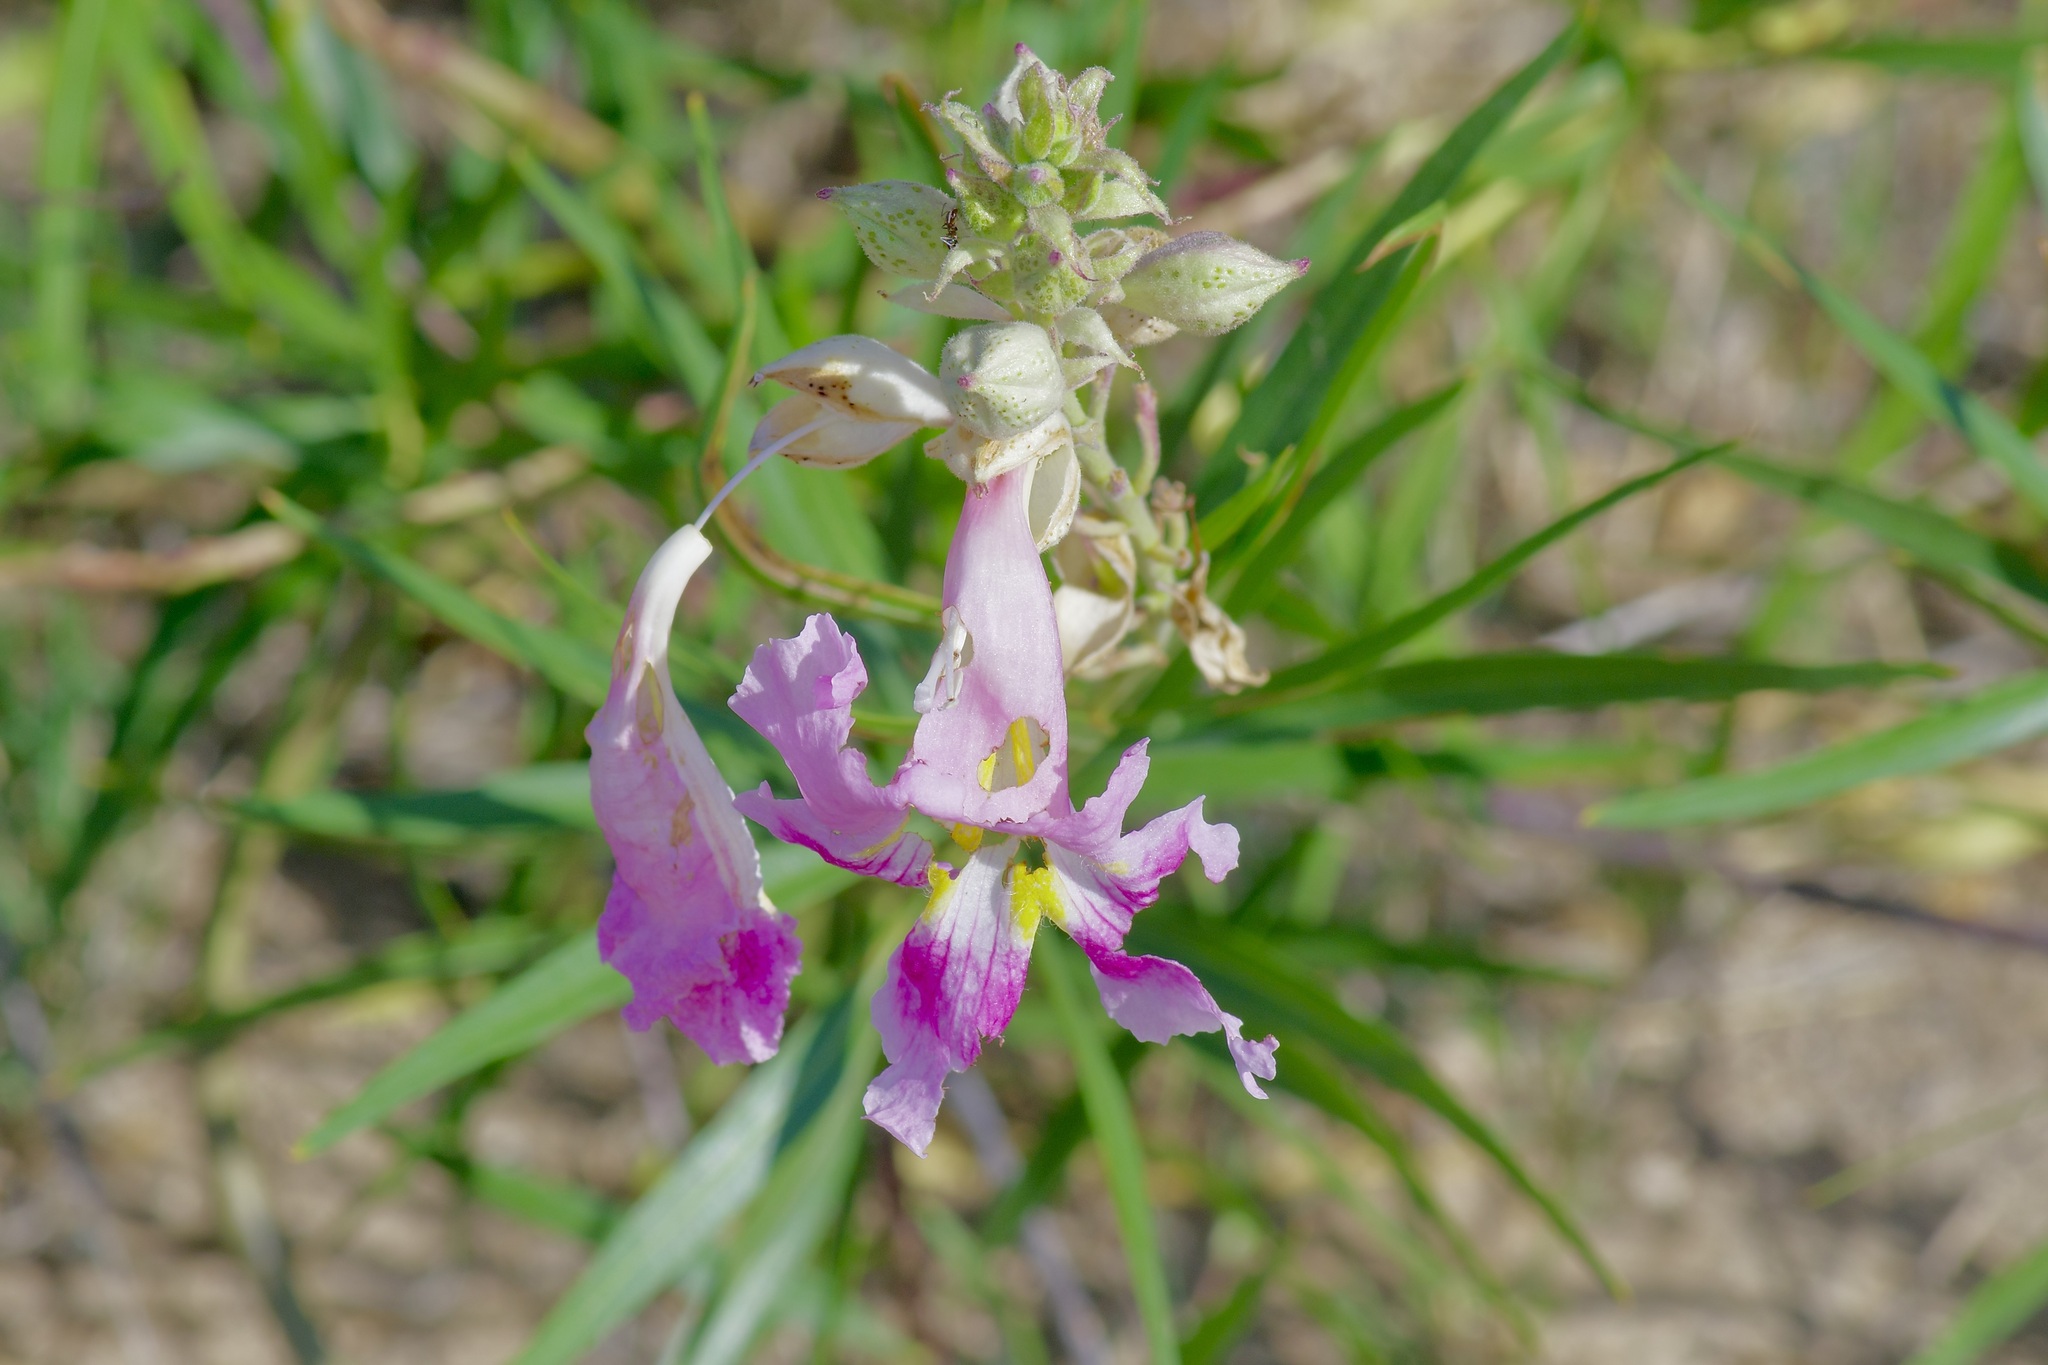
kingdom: Plantae
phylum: Tracheophyta
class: Magnoliopsida
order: Lamiales
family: Bignoniaceae
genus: Chilopsis
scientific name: Chilopsis linearis
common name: Desert-willow
